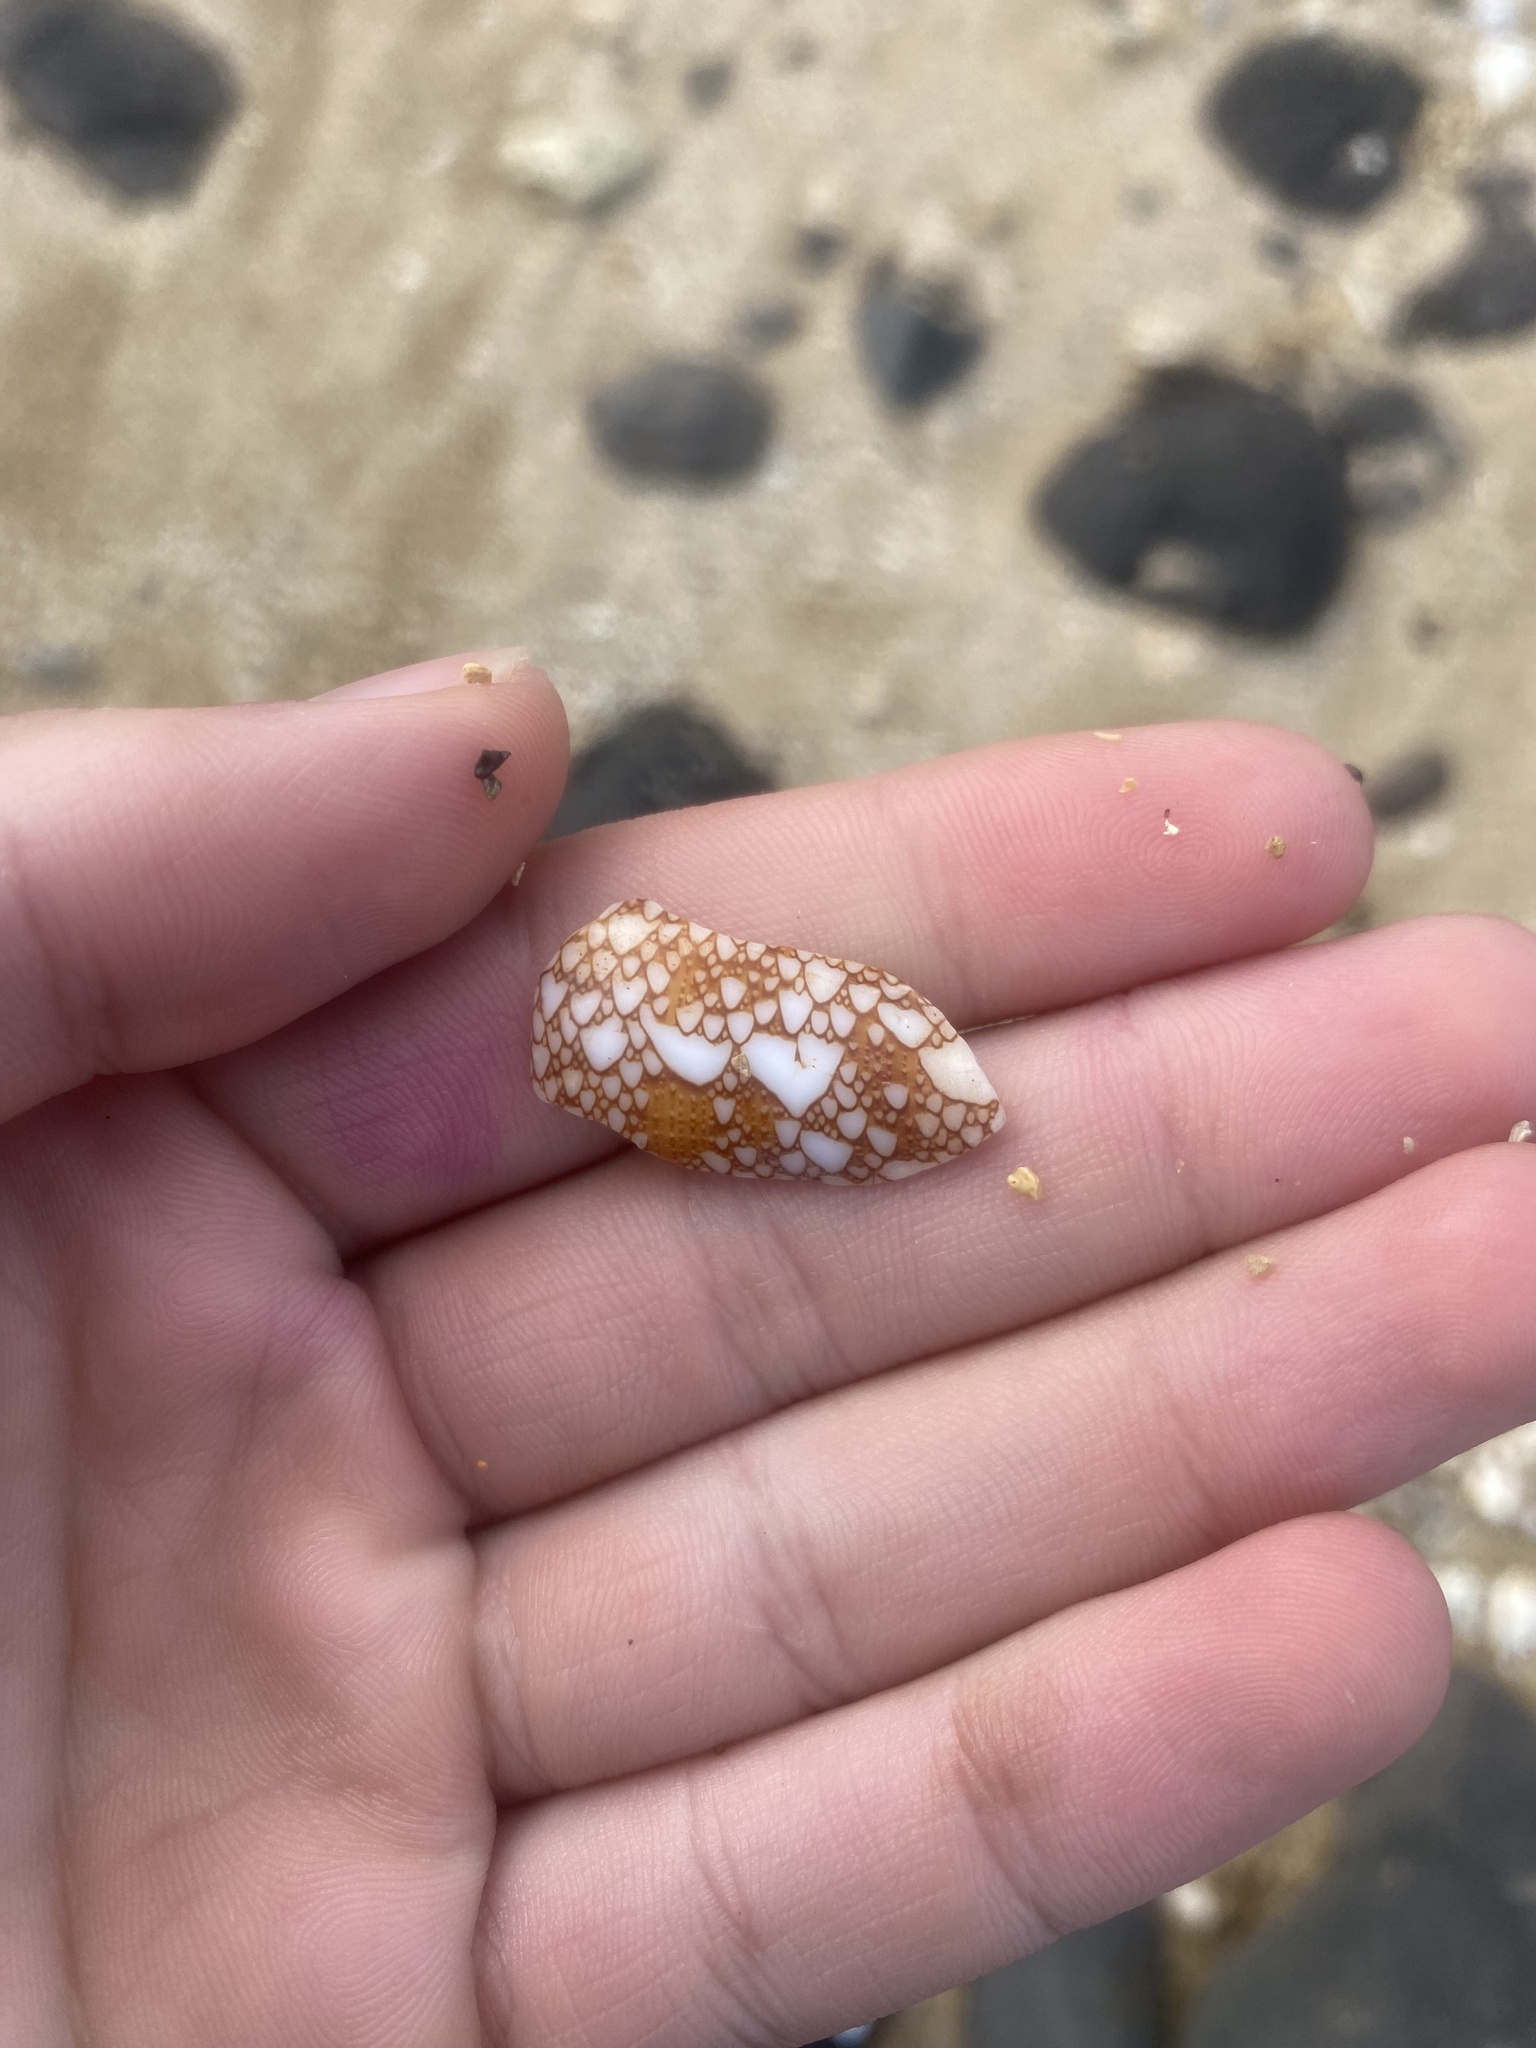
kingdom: Animalia
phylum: Mollusca
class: Gastropoda
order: Neogastropoda
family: Conidae
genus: Conus
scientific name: Conus purus
